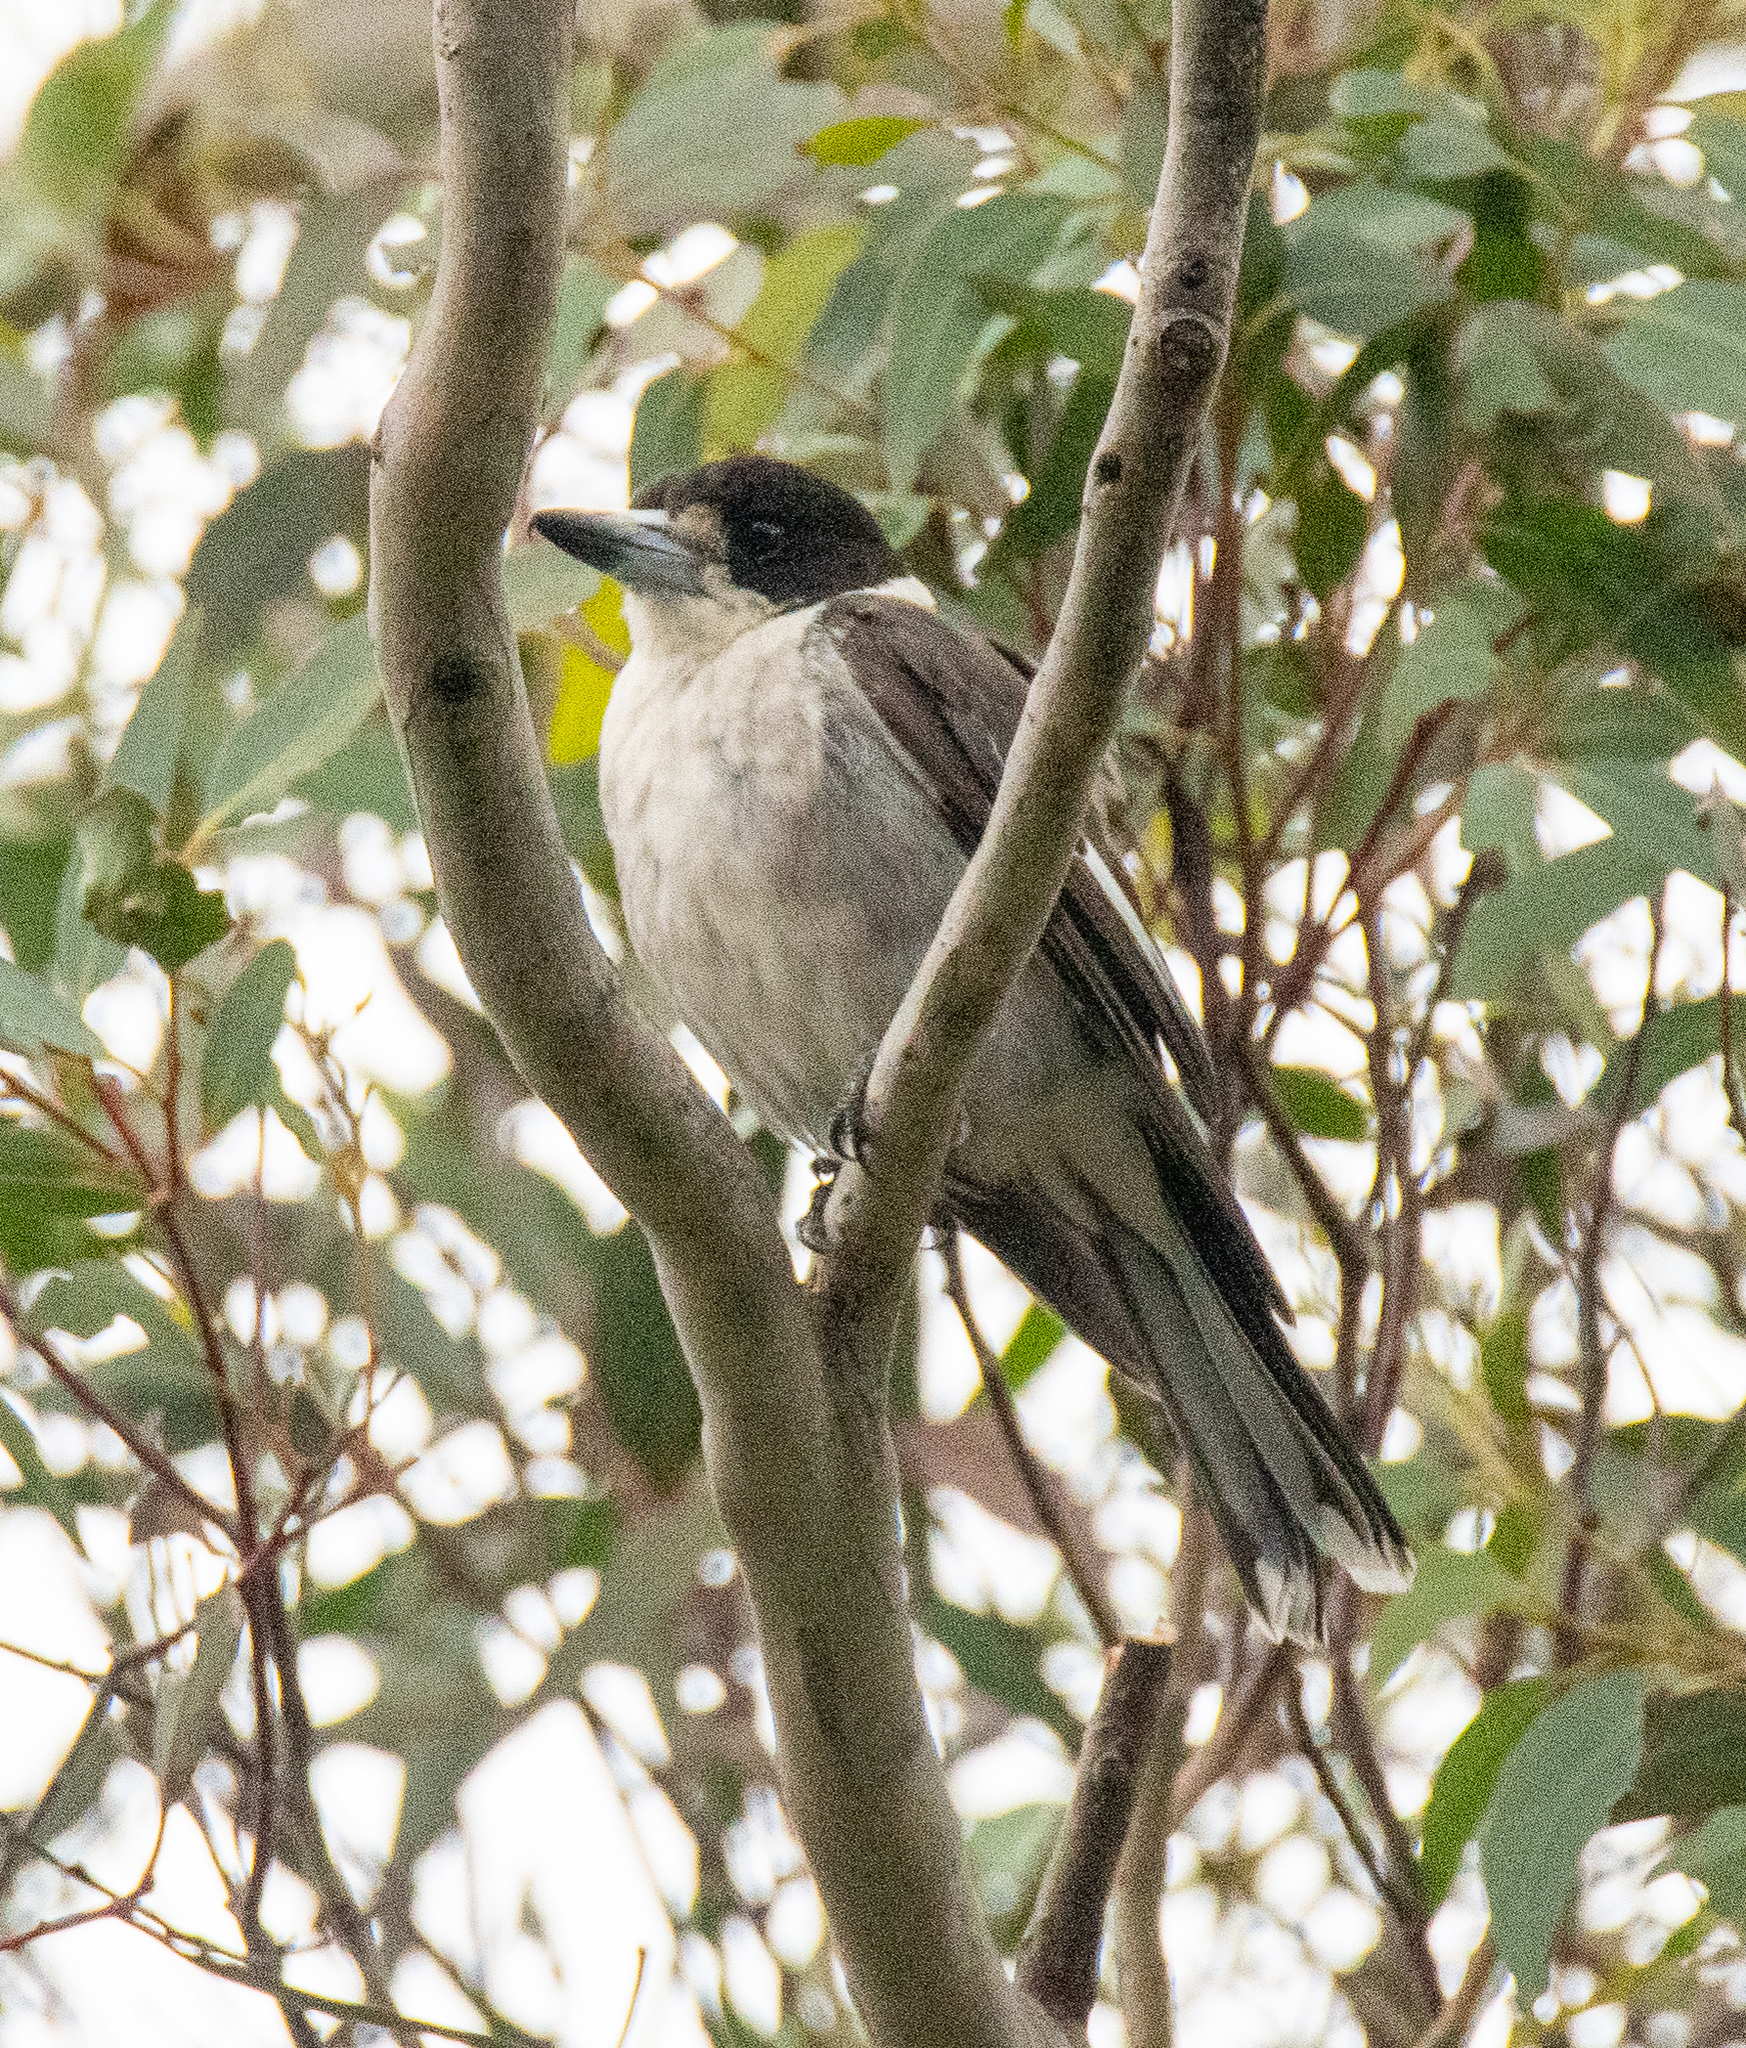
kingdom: Animalia
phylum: Chordata
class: Aves
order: Passeriformes
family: Cracticidae
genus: Cracticus
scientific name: Cracticus torquatus
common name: Grey butcherbird
